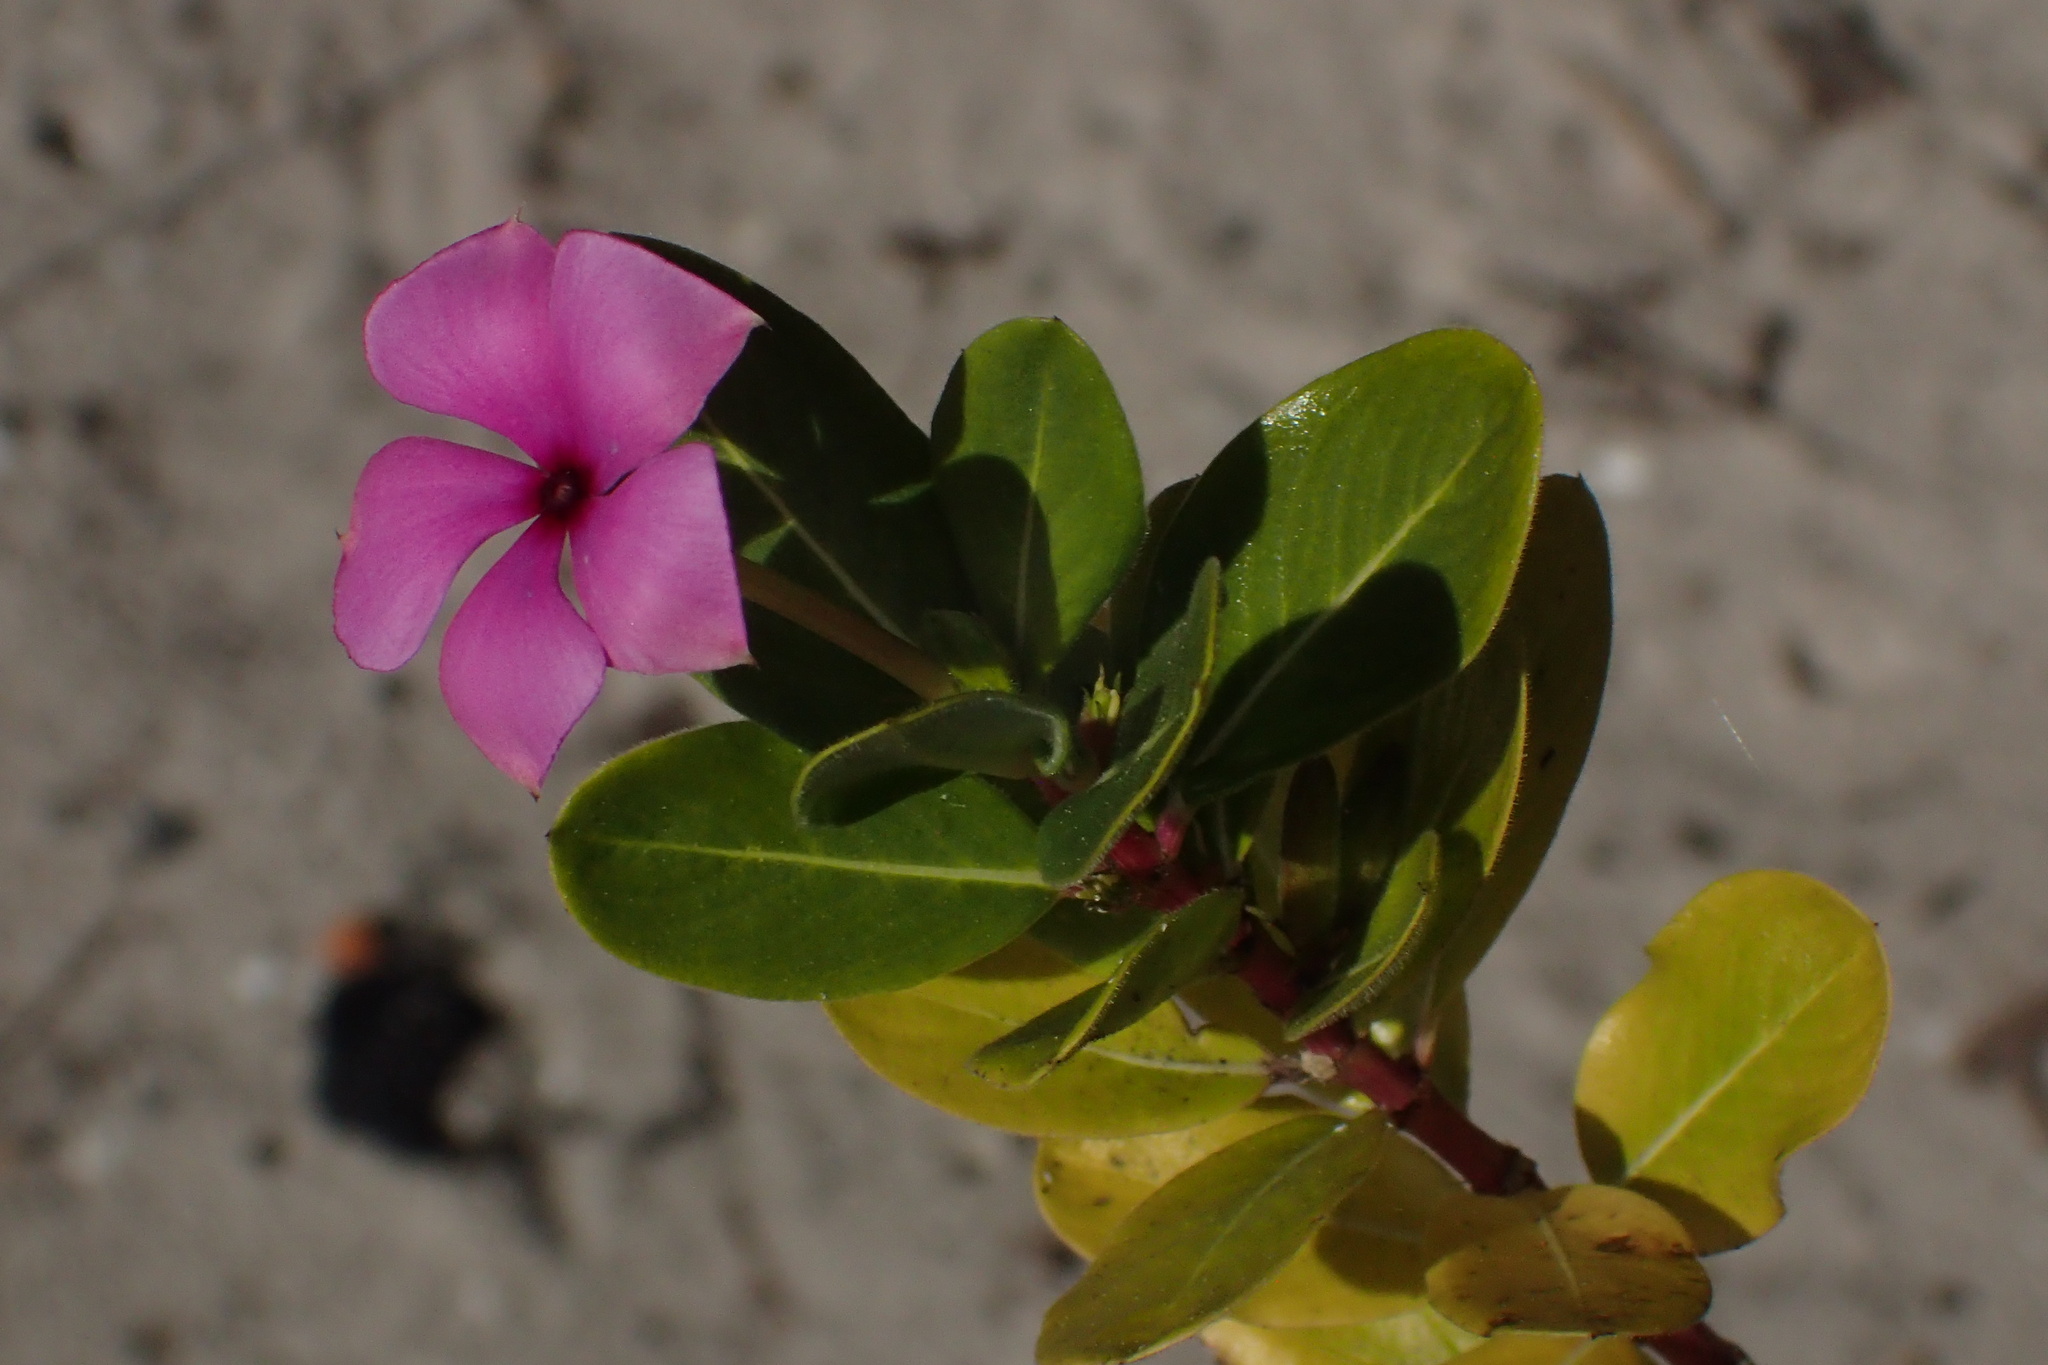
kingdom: Plantae
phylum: Tracheophyta
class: Magnoliopsida
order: Gentianales
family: Apocynaceae
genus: Catharanthus
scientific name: Catharanthus roseus
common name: Madagascar periwinkle
